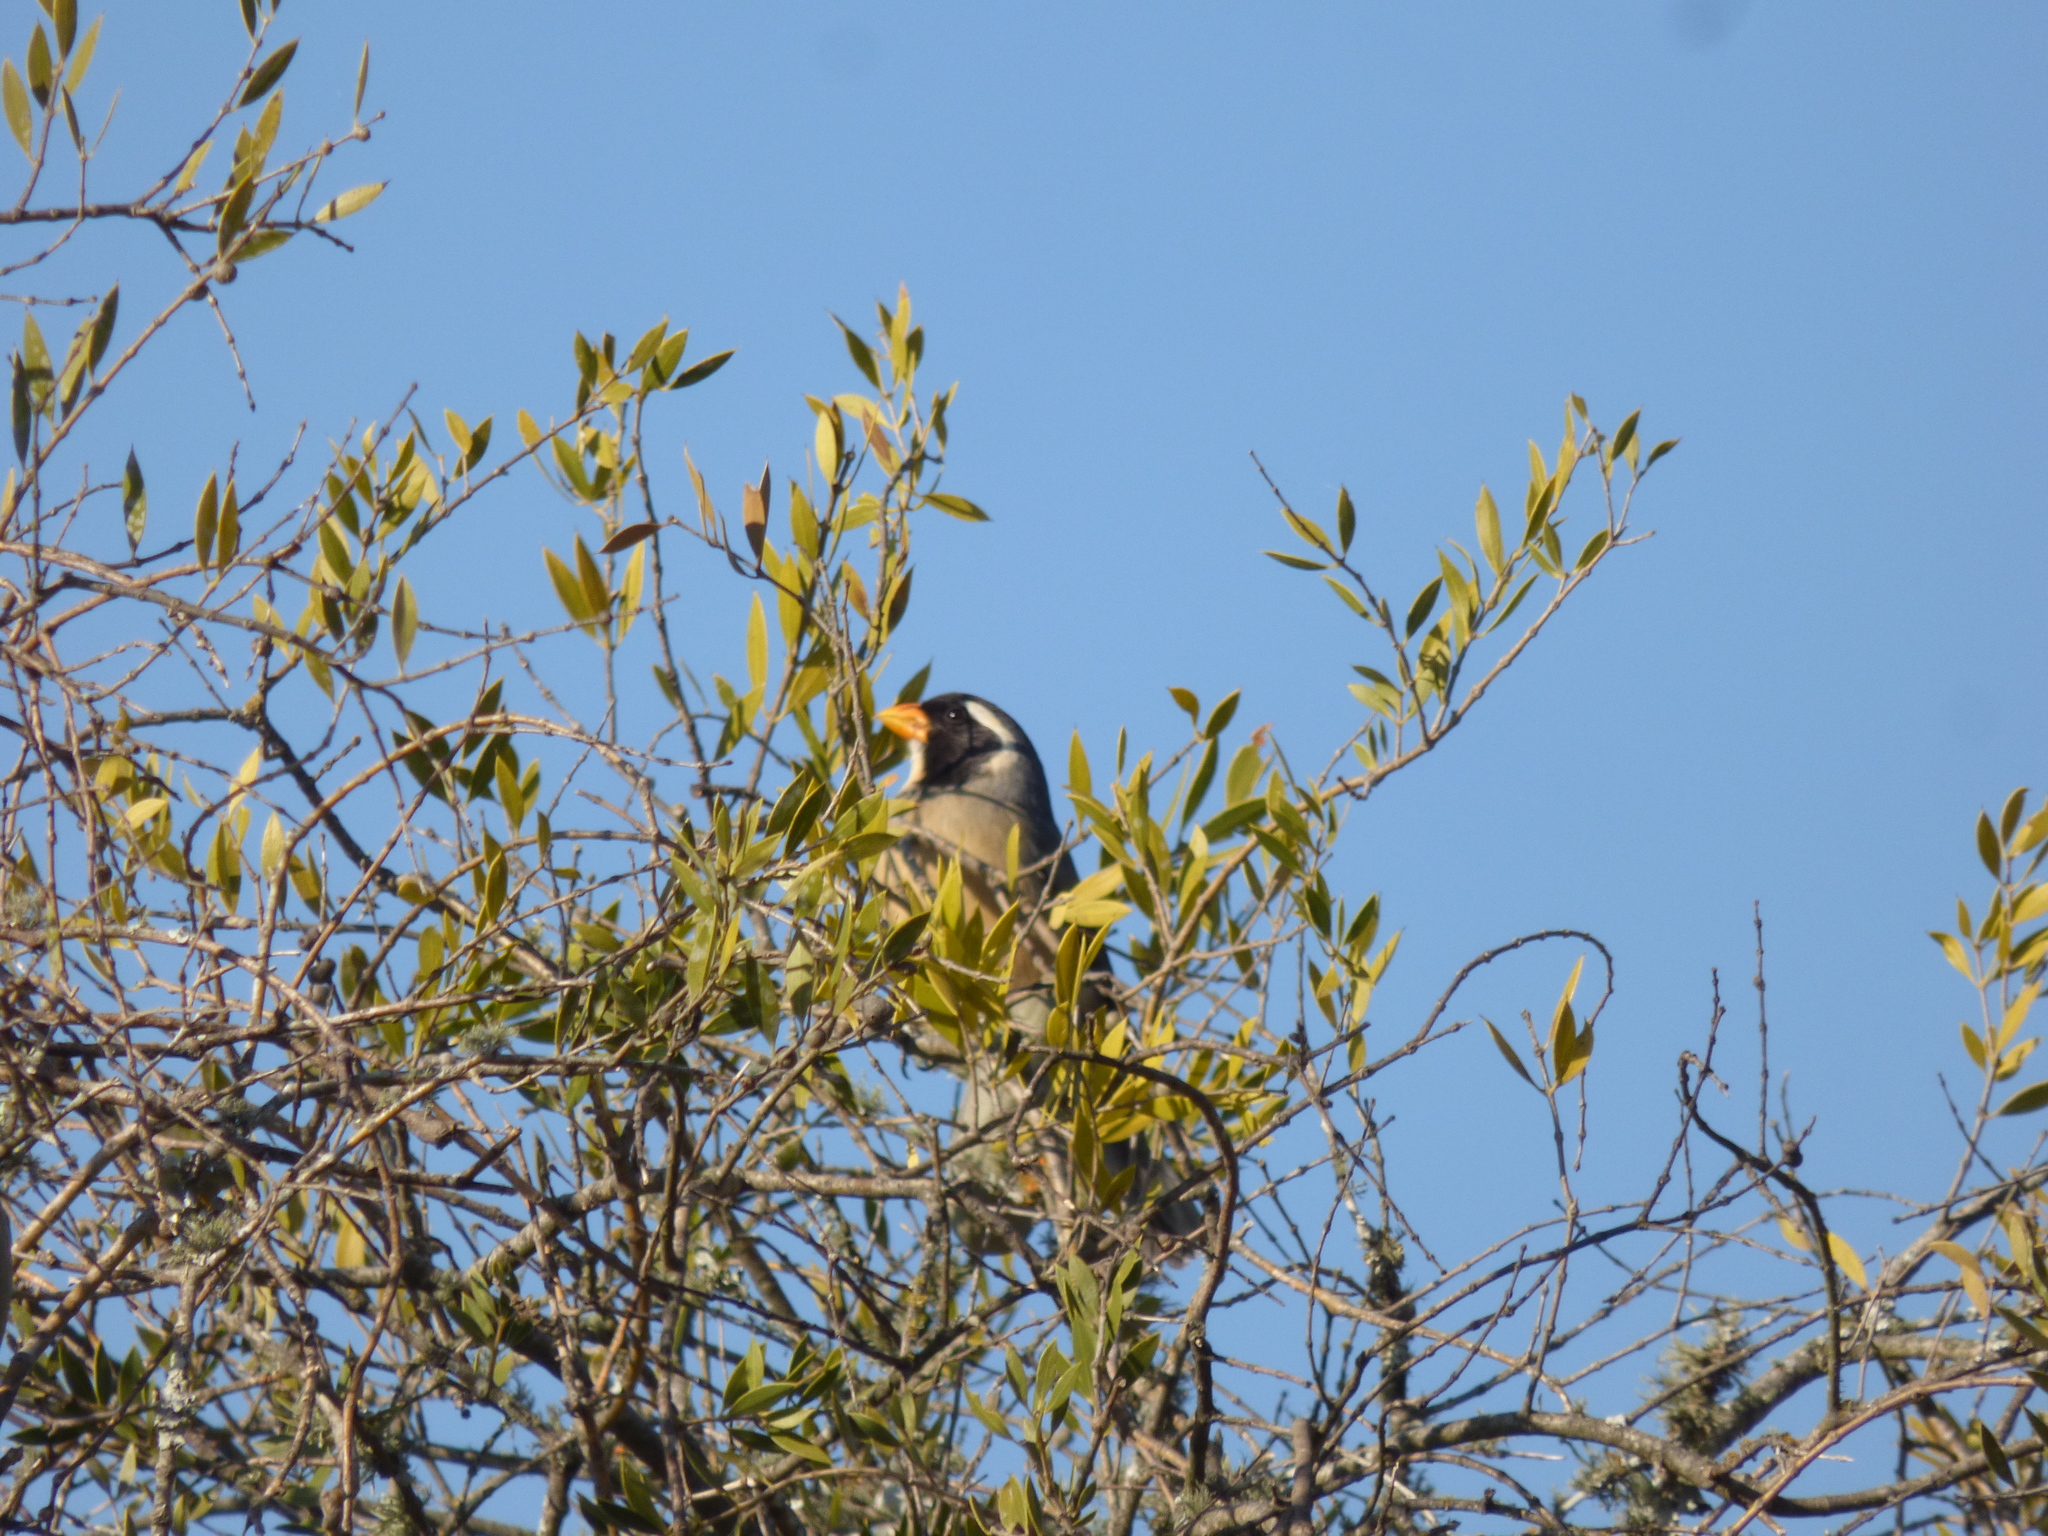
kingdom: Animalia
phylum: Chordata
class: Aves
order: Passeriformes
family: Thraupidae
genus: Saltator
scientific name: Saltator aurantiirostris
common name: Golden-billed saltator
